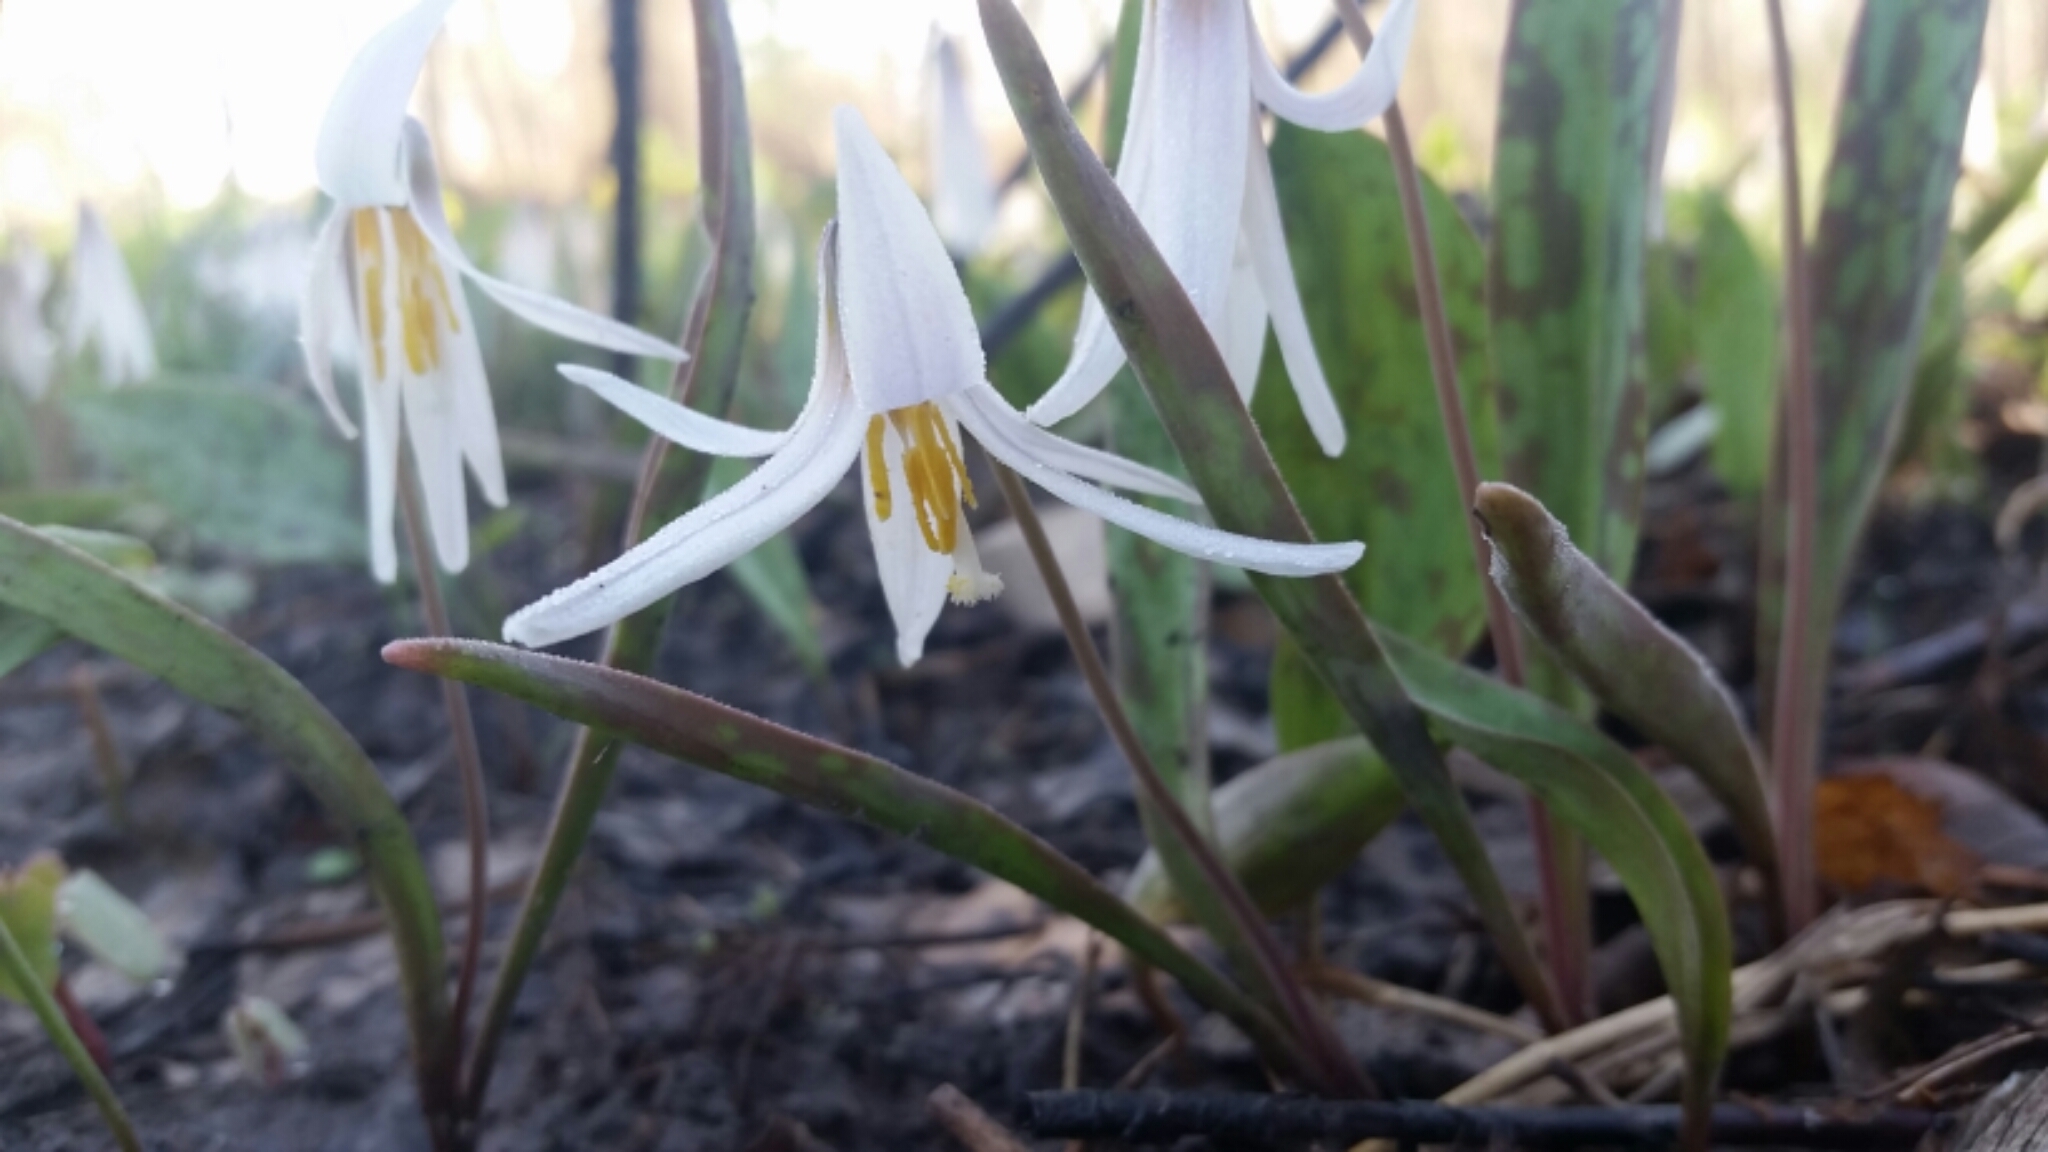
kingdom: Plantae
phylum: Tracheophyta
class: Liliopsida
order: Liliales
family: Liliaceae
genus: Erythronium
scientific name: Erythronium albidum
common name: White trout-lily
